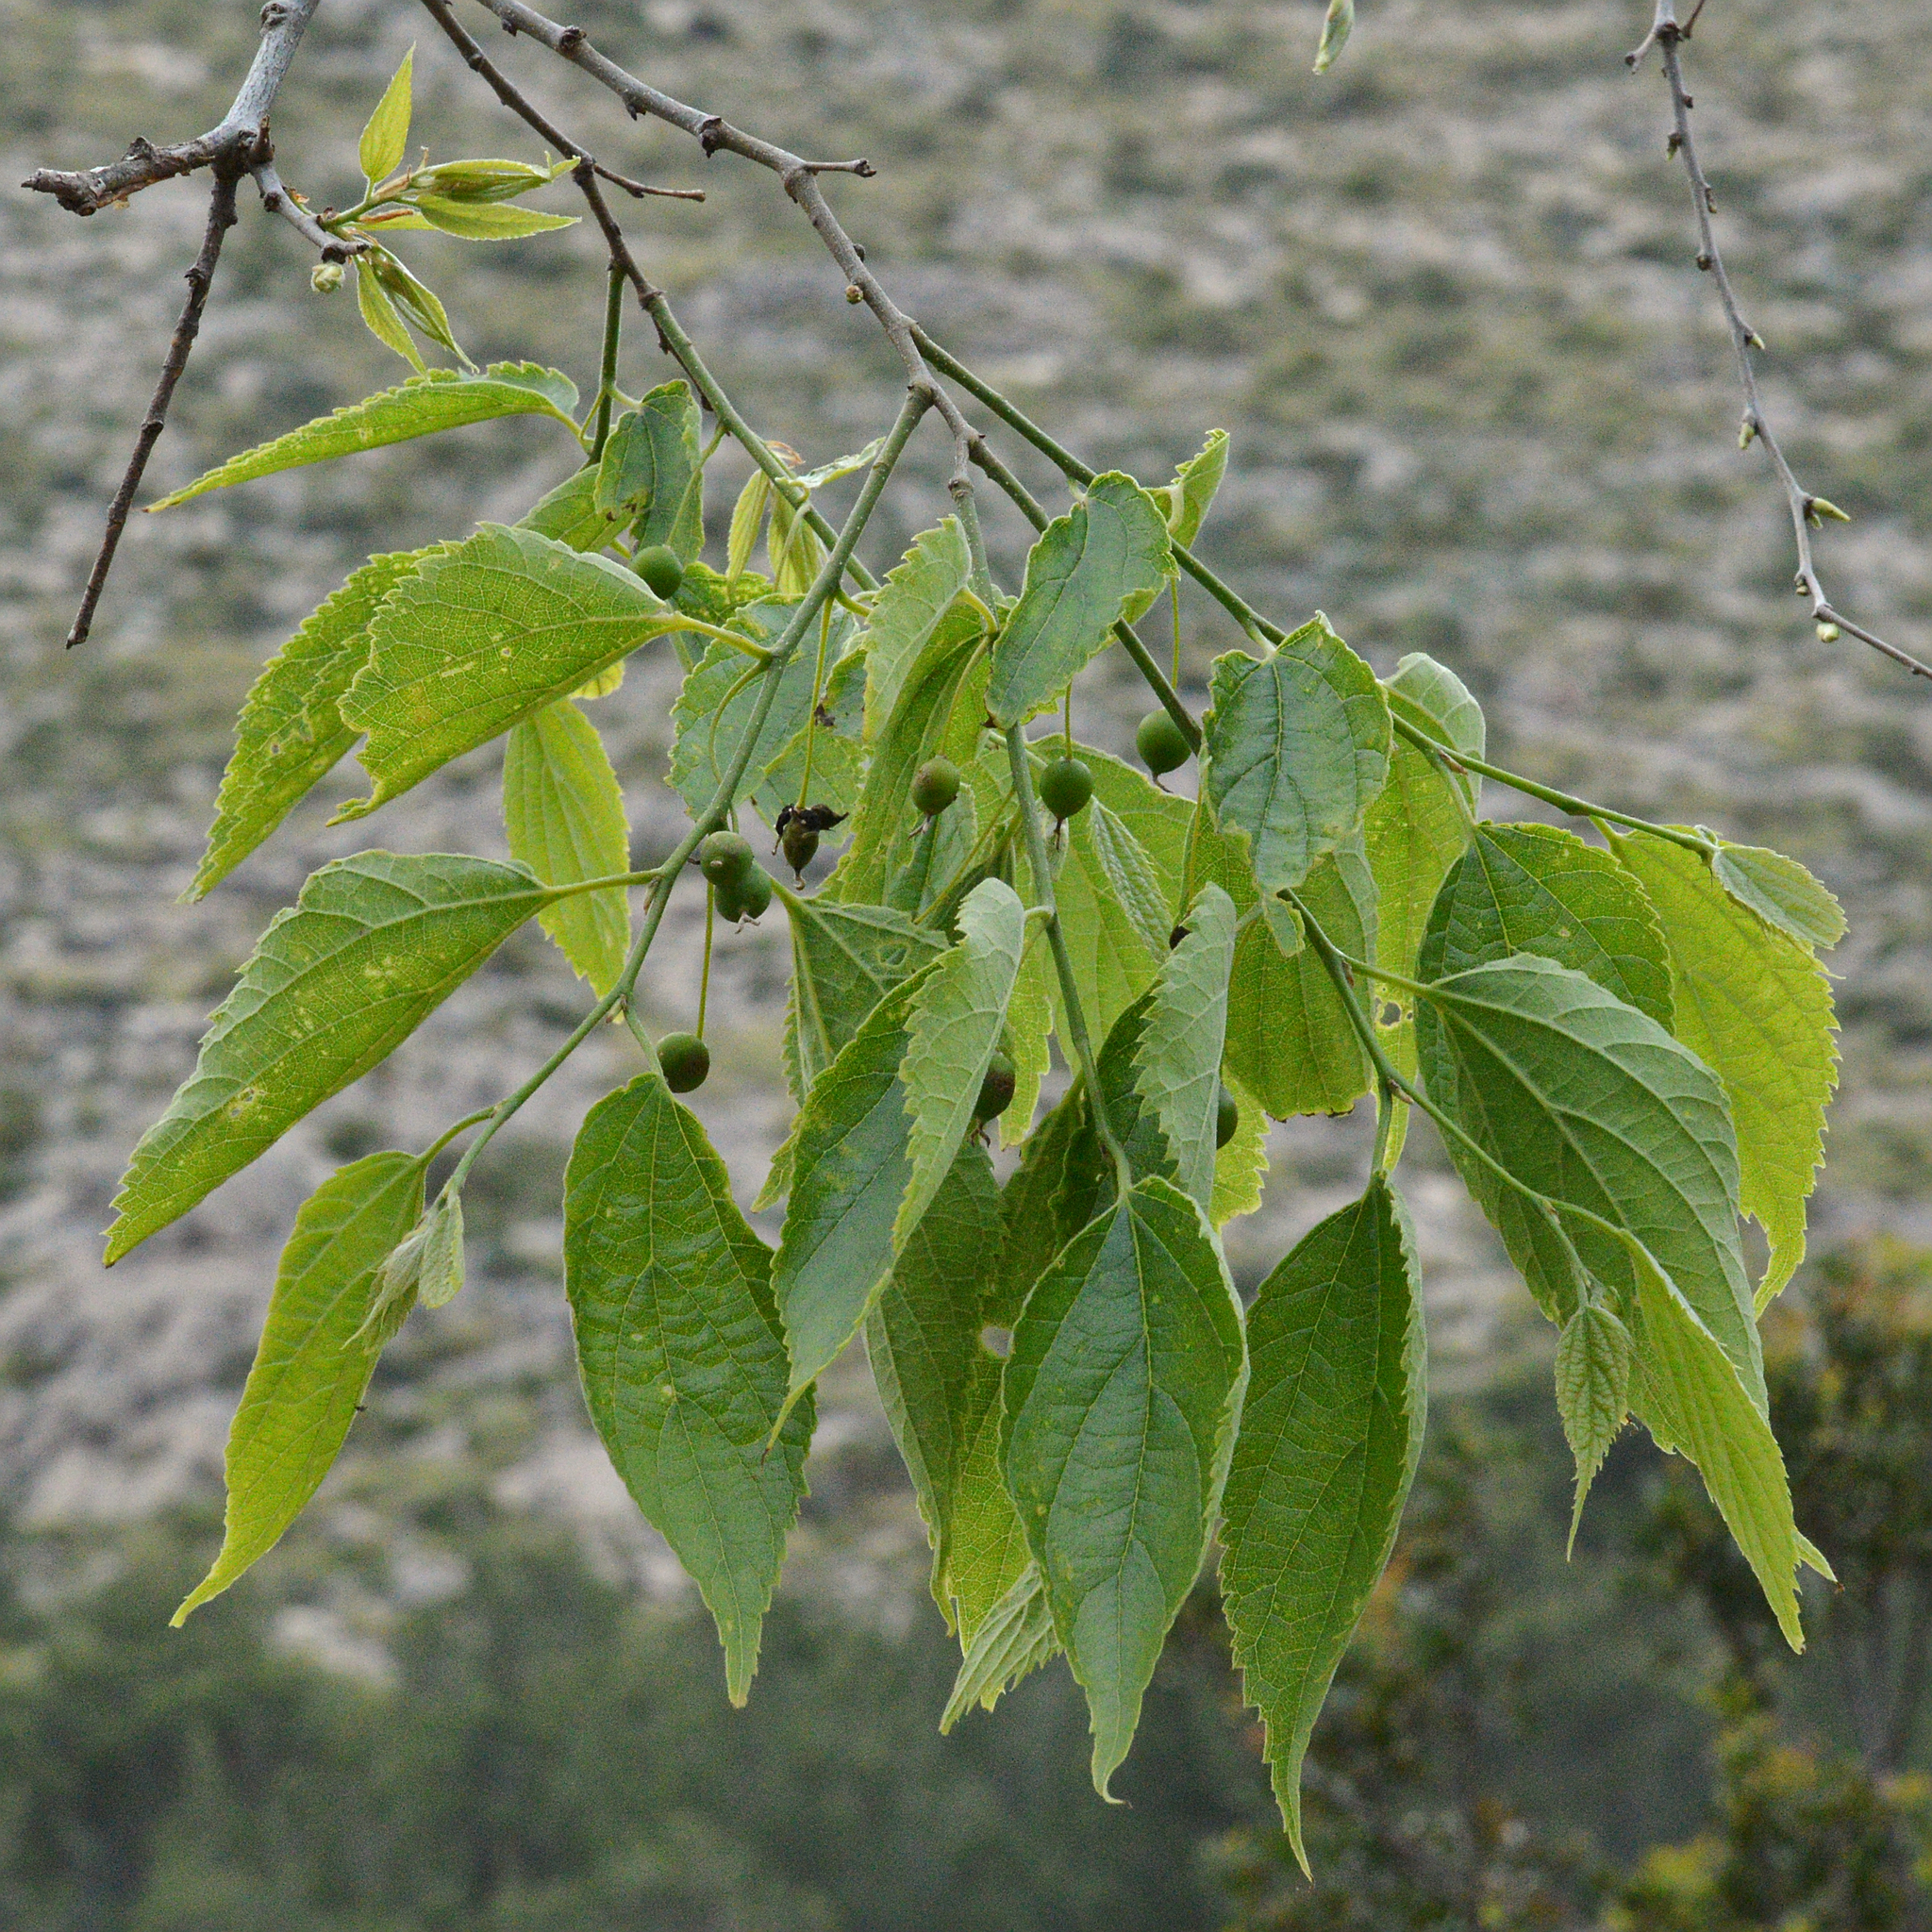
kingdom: Plantae
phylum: Tracheophyta
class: Magnoliopsida
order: Rosales
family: Cannabaceae
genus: Celtis
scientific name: Celtis australis
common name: European hackberry
